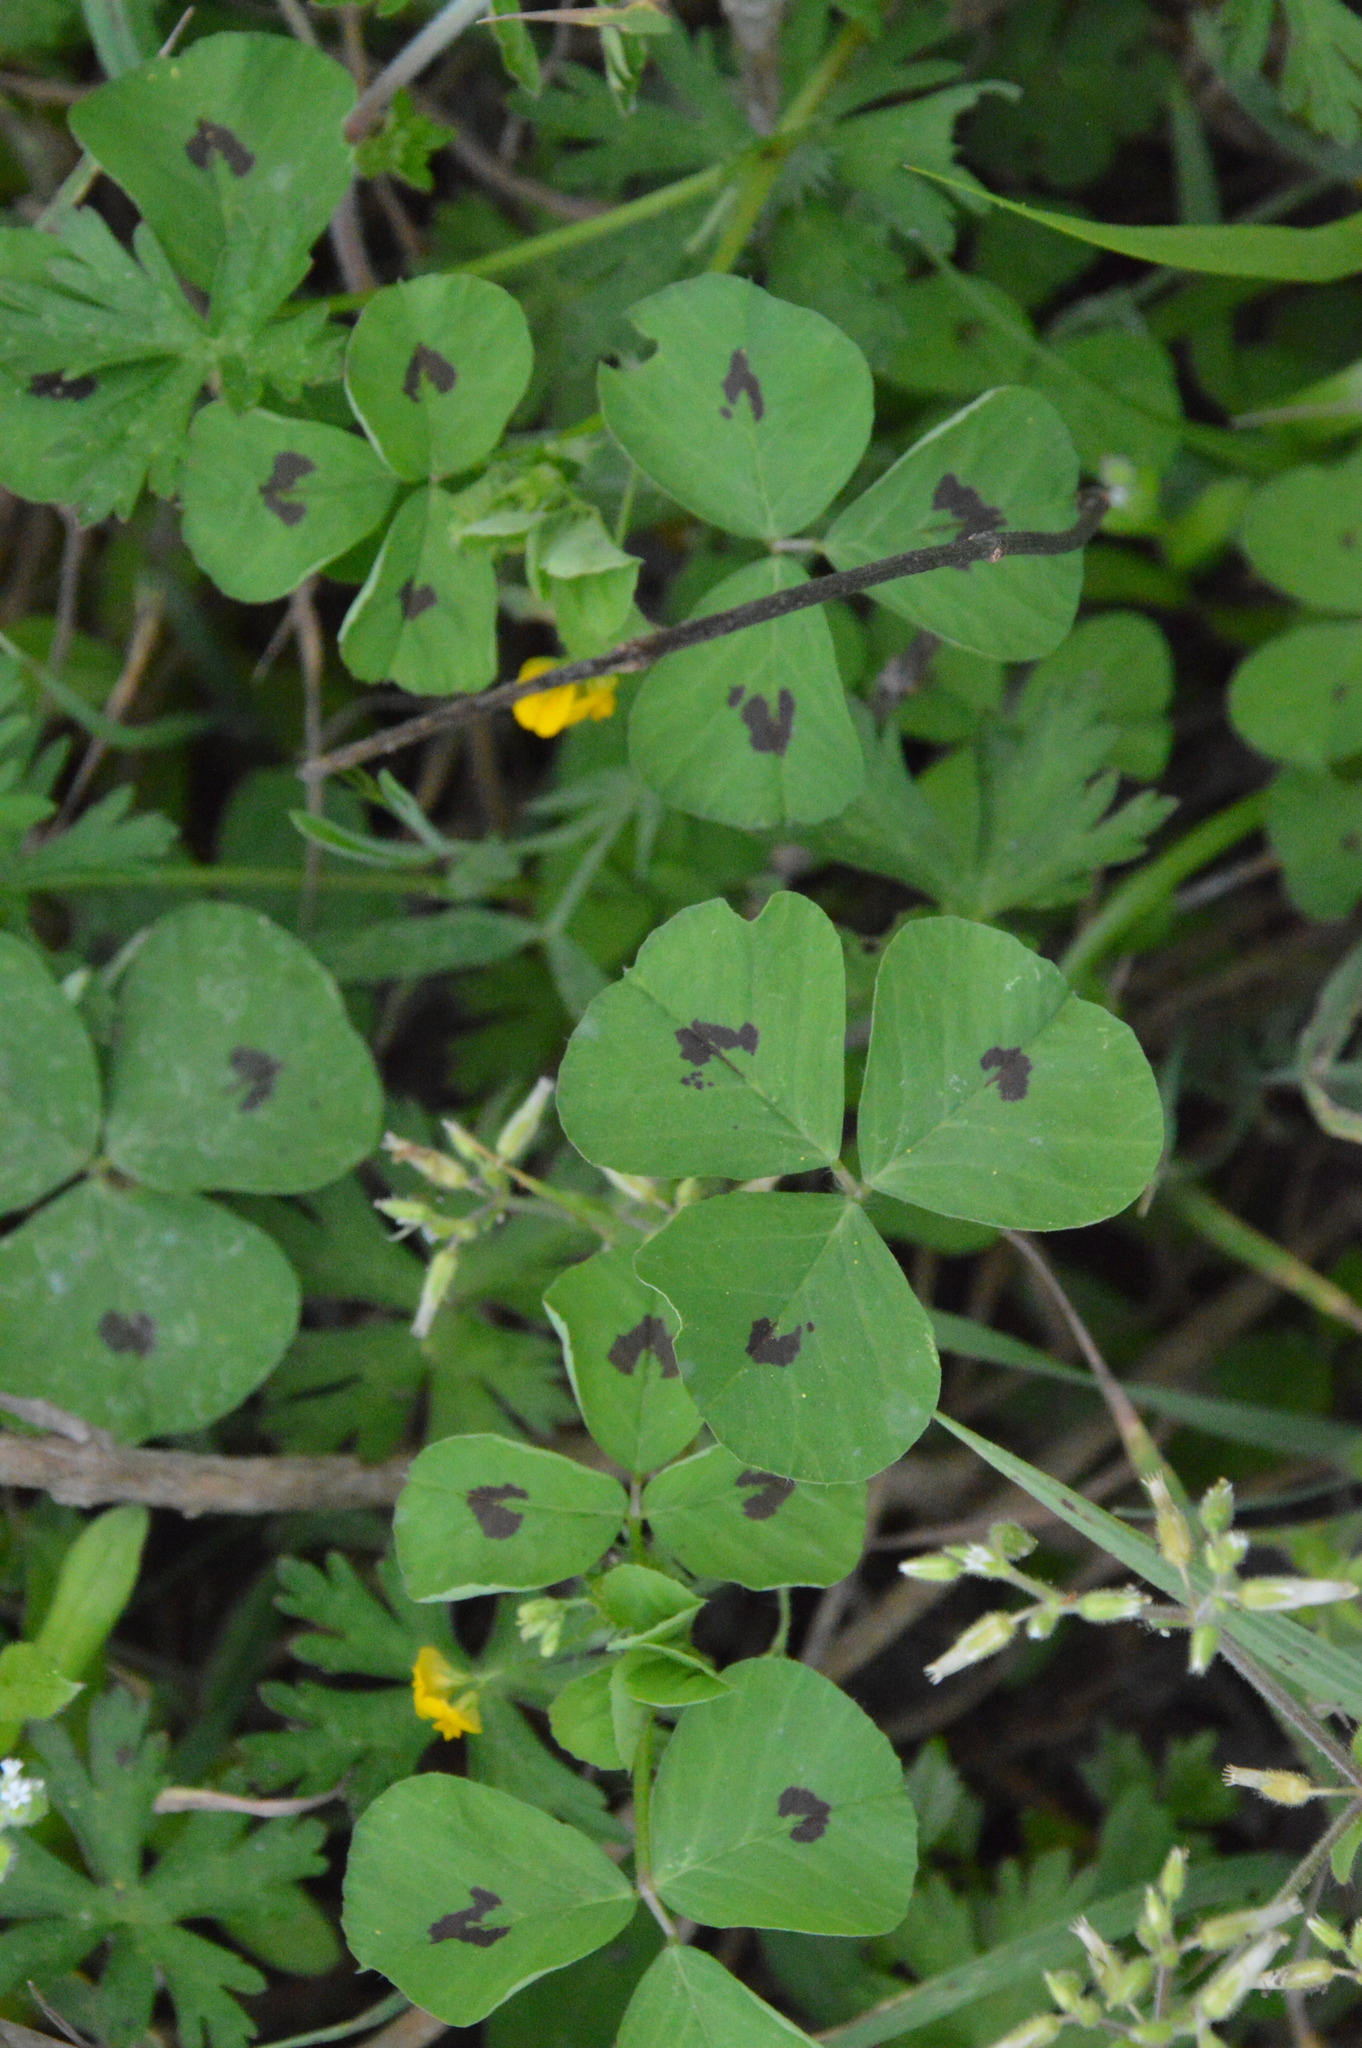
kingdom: Plantae
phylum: Tracheophyta
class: Magnoliopsida
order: Fabales
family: Fabaceae
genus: Medicago
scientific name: Medicago arabica
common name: Spotted medick
